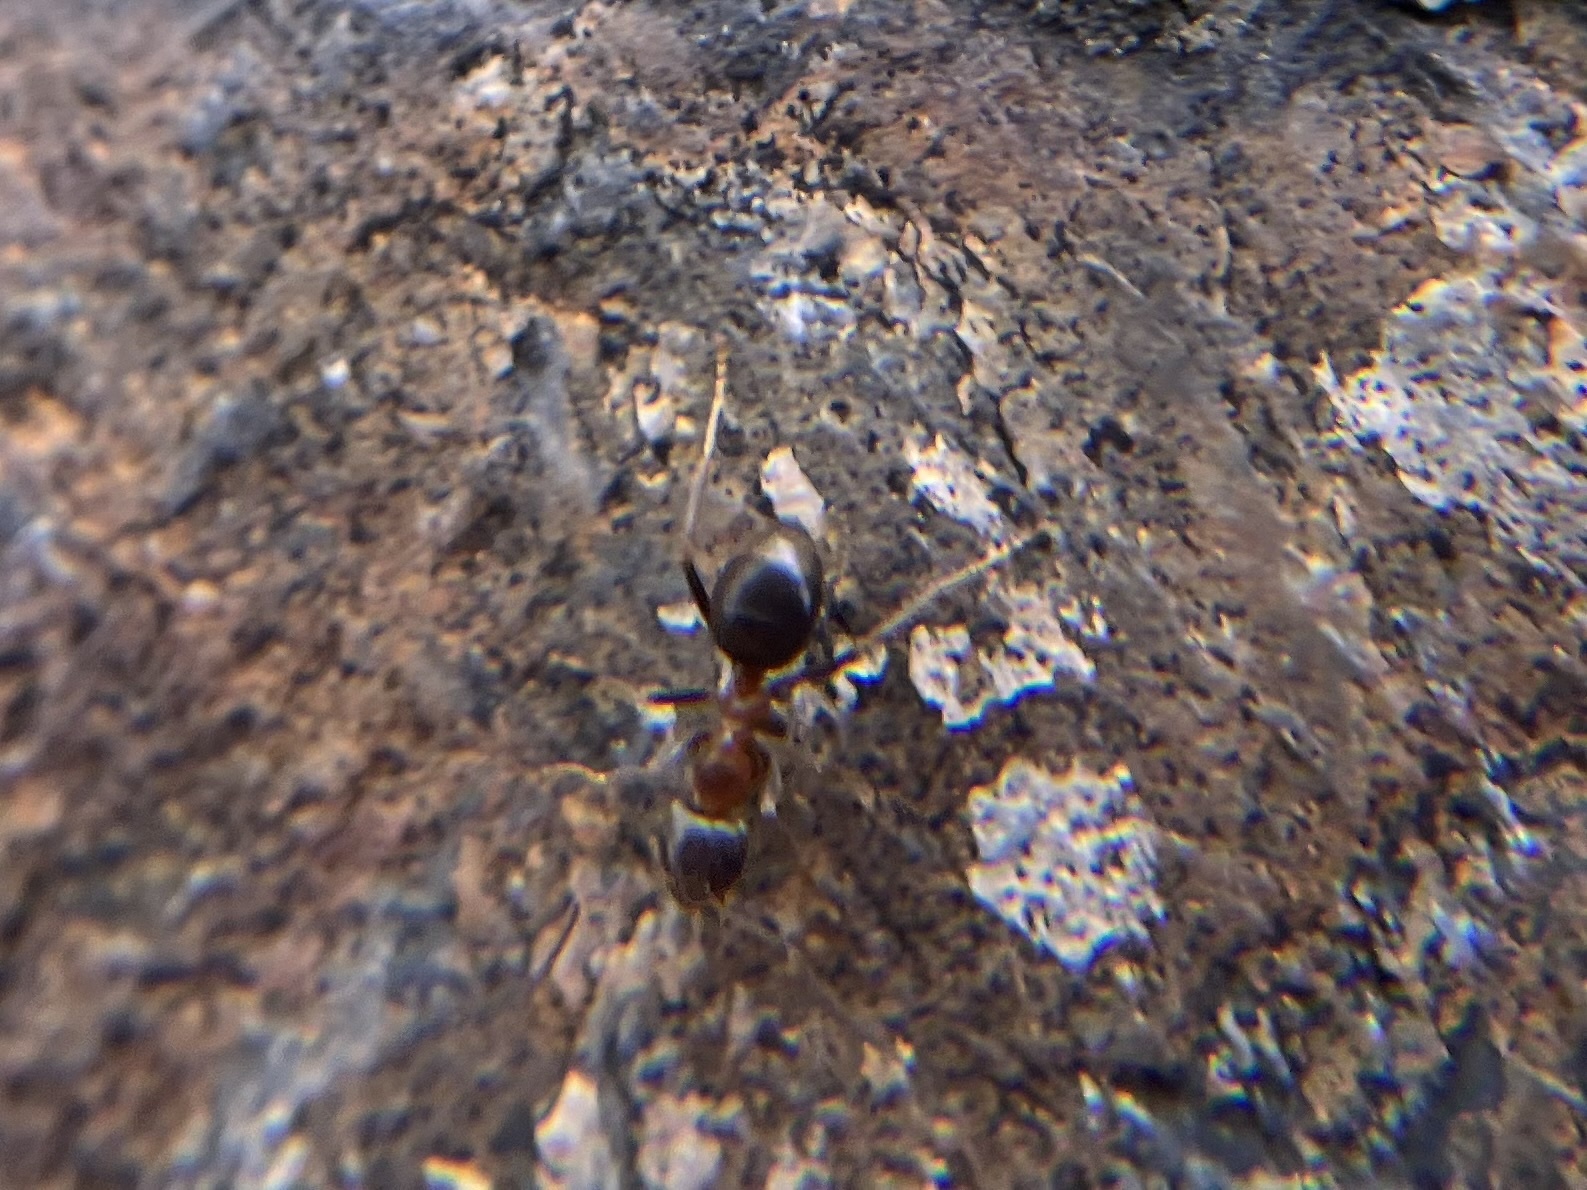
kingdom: Animalia
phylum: Arthropoda
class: Insecta
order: Hymenoptera
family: Formicidae
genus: Lasius
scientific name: Lasius emarginatus
